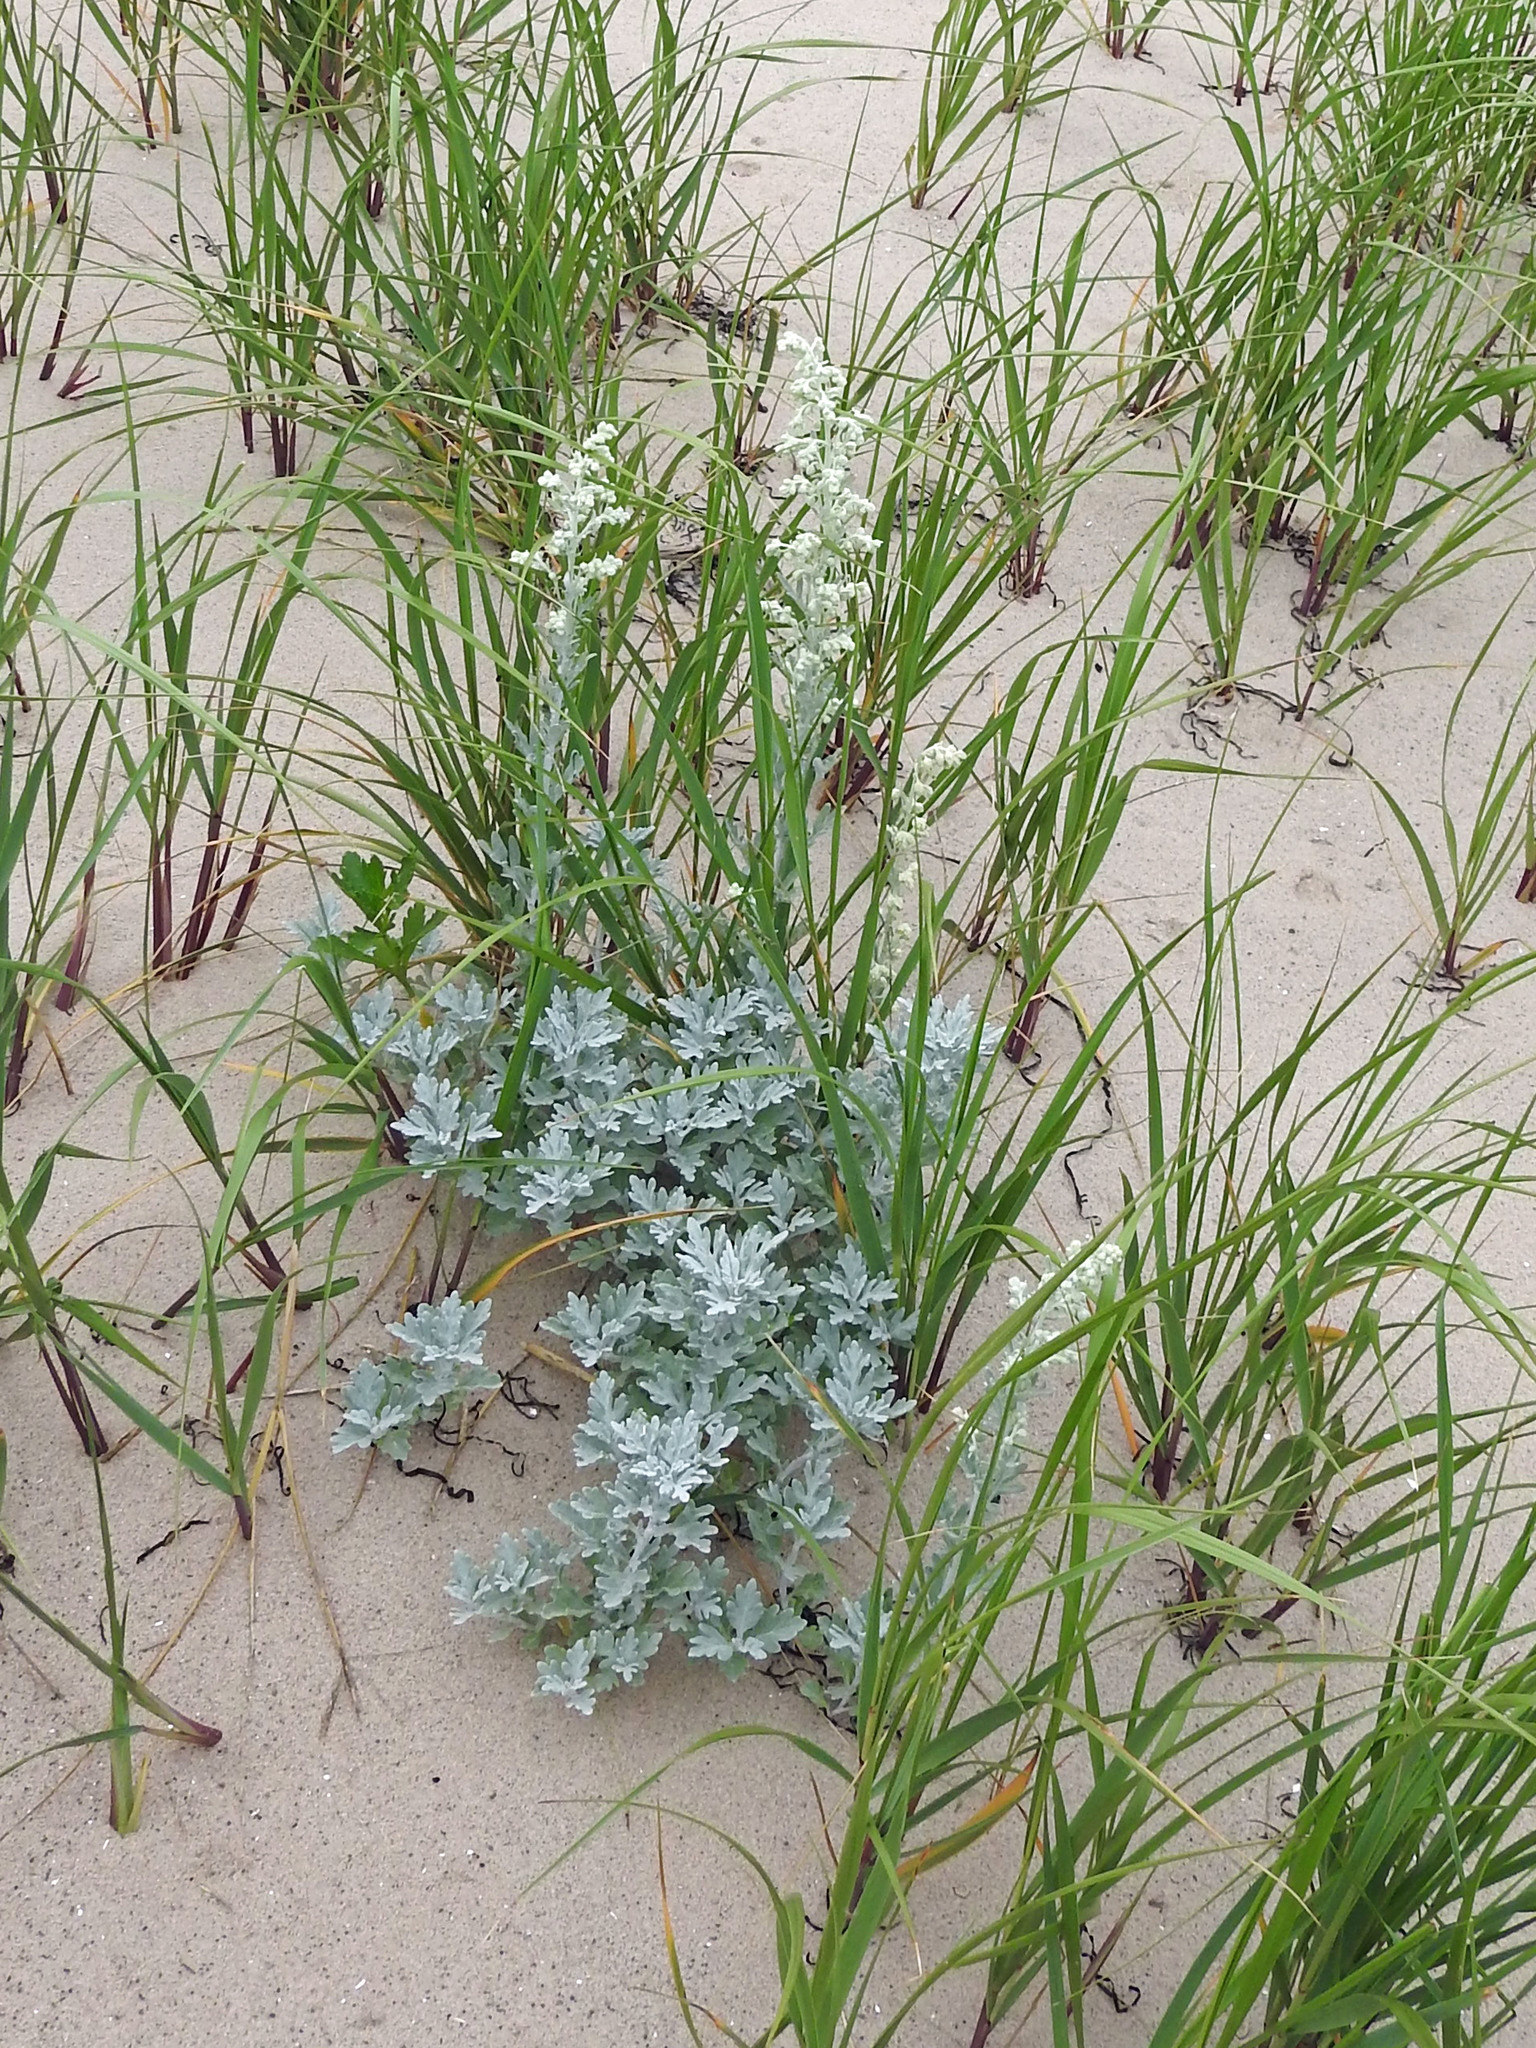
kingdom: Plantae
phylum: Tracheophyta
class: Magnoliopsida
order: Asterales
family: Asteraceae
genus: Artemisia
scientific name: Artemisia stelleriana
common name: Beach wormwood
